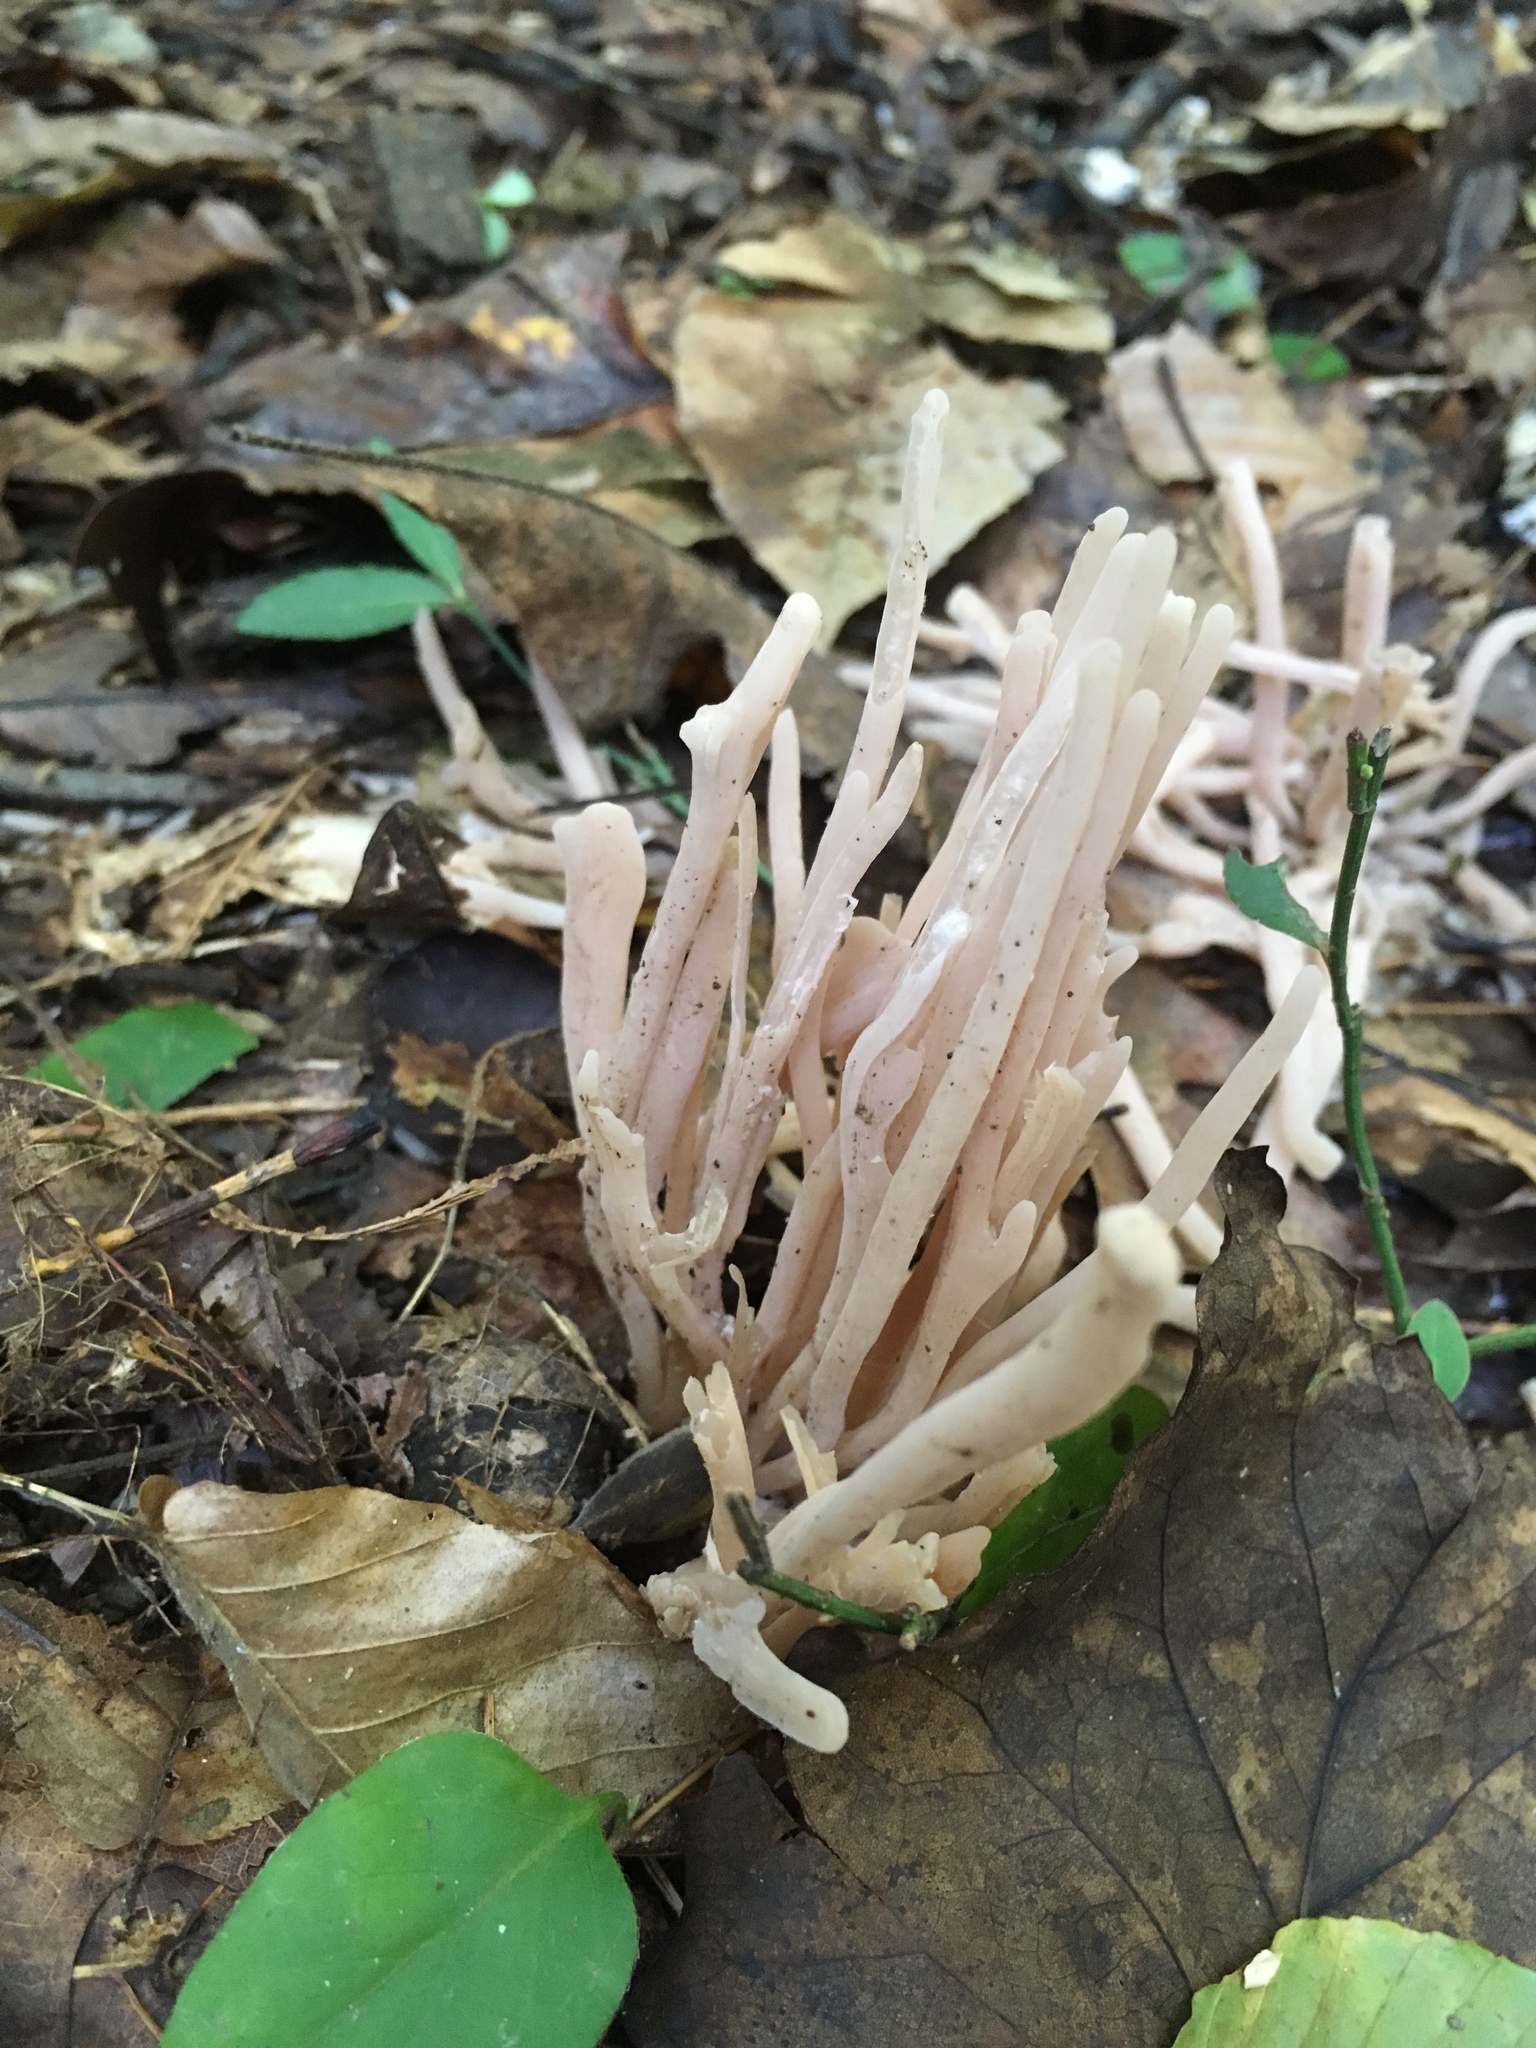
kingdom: Fungi
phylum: Basidiomycota
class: Agaricomycetes
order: Agaricales
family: Clavariaceae
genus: Clavaria
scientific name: Clavaria fragilis
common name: White spindles
